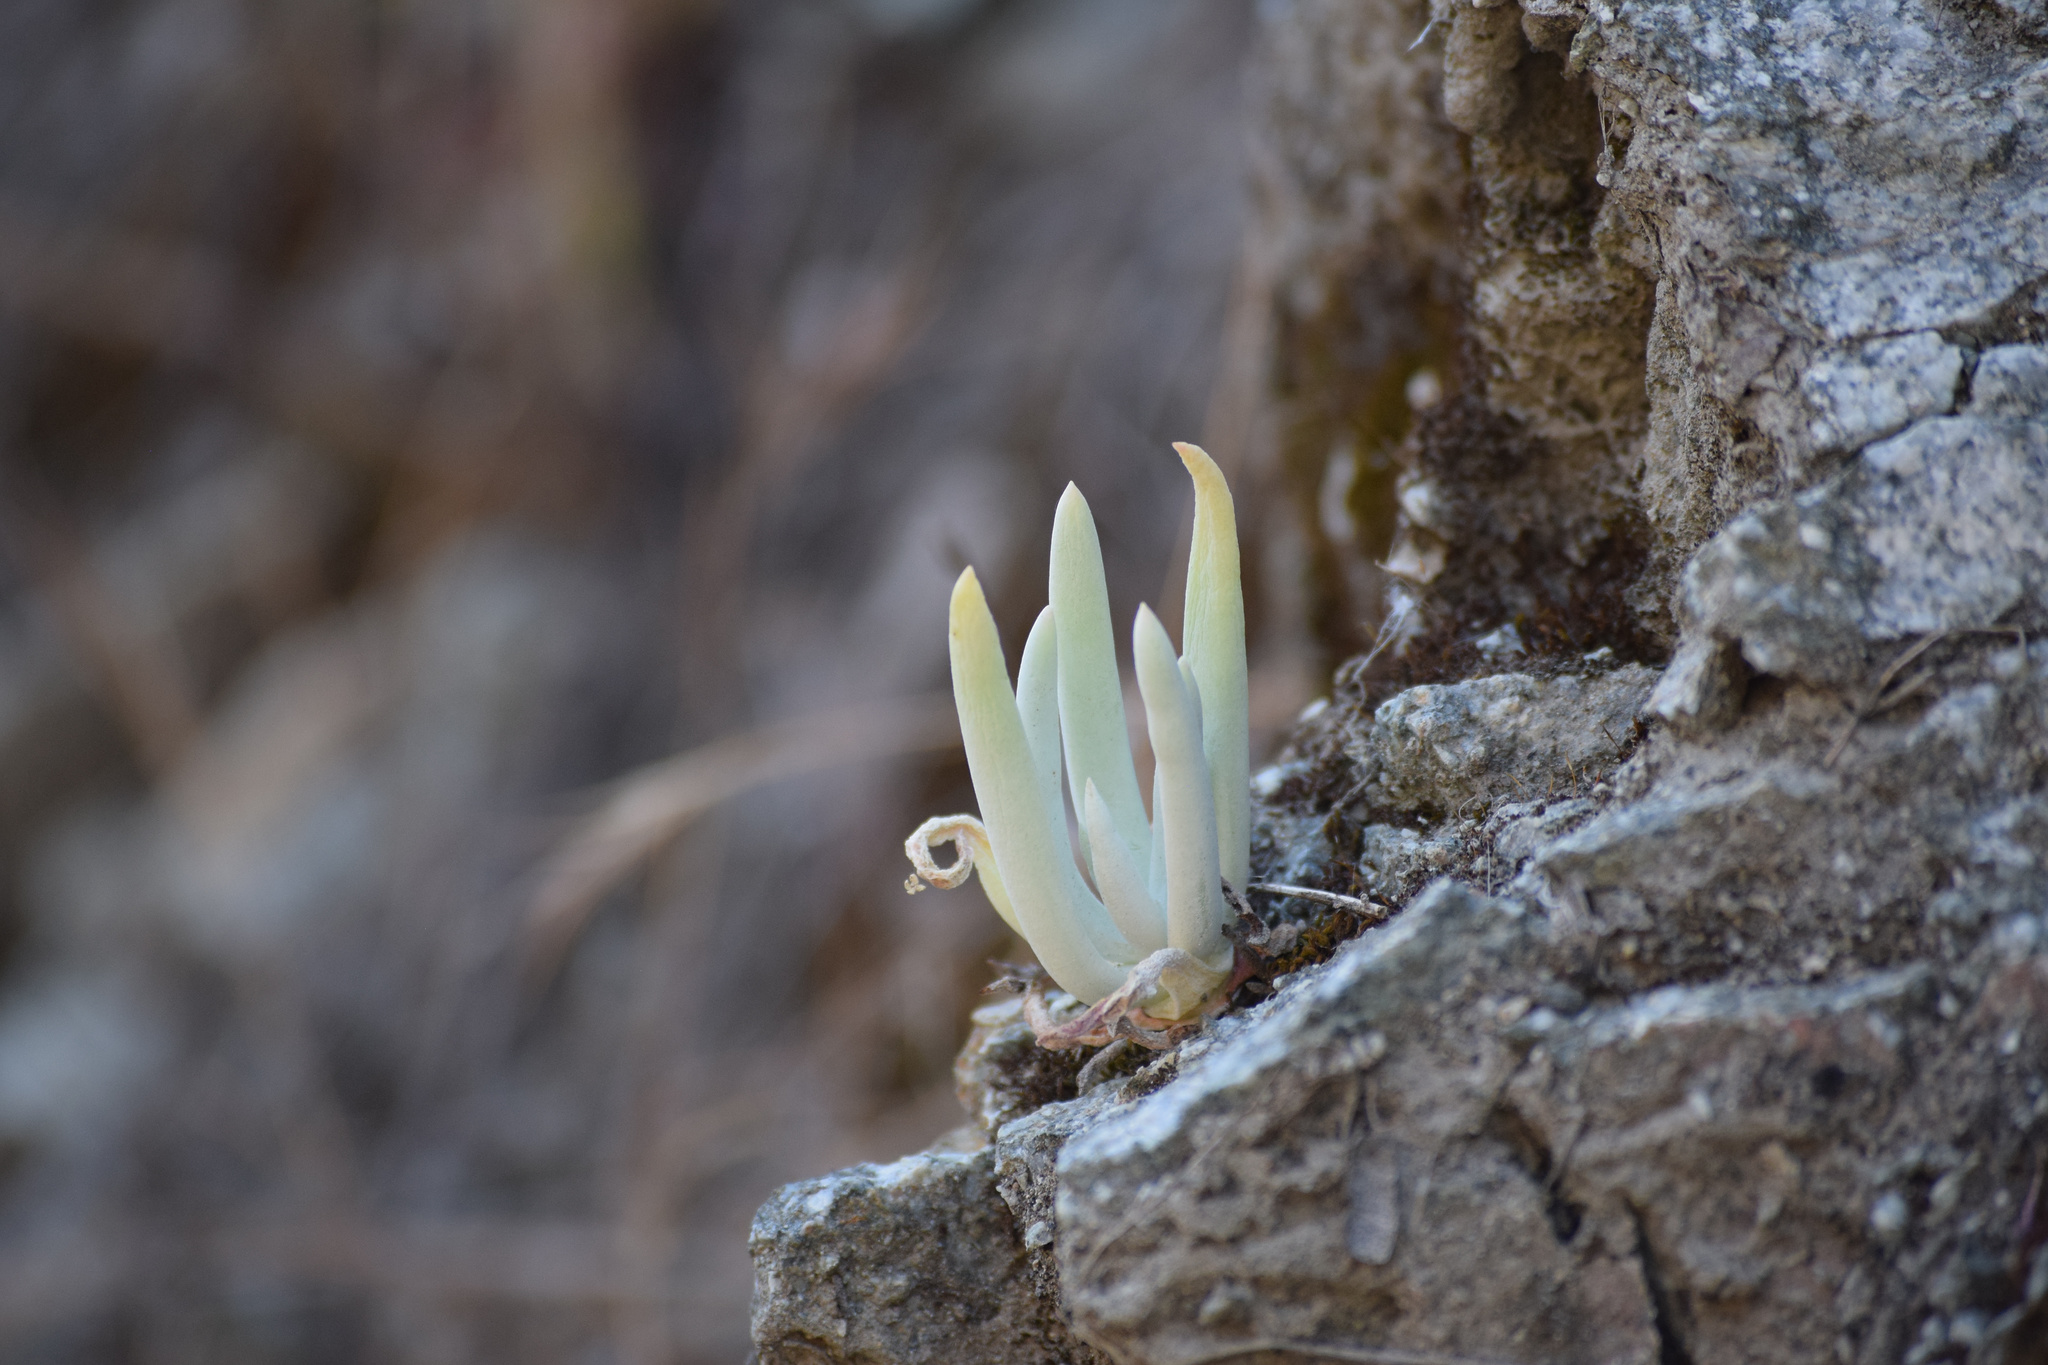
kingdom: Plantae
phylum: Tracheophyta
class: Magnoliopsida
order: Saxifragales
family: Crassulaceae
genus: Dudleya
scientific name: Dudleya densiflora
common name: San gabriel mountains dudleya
